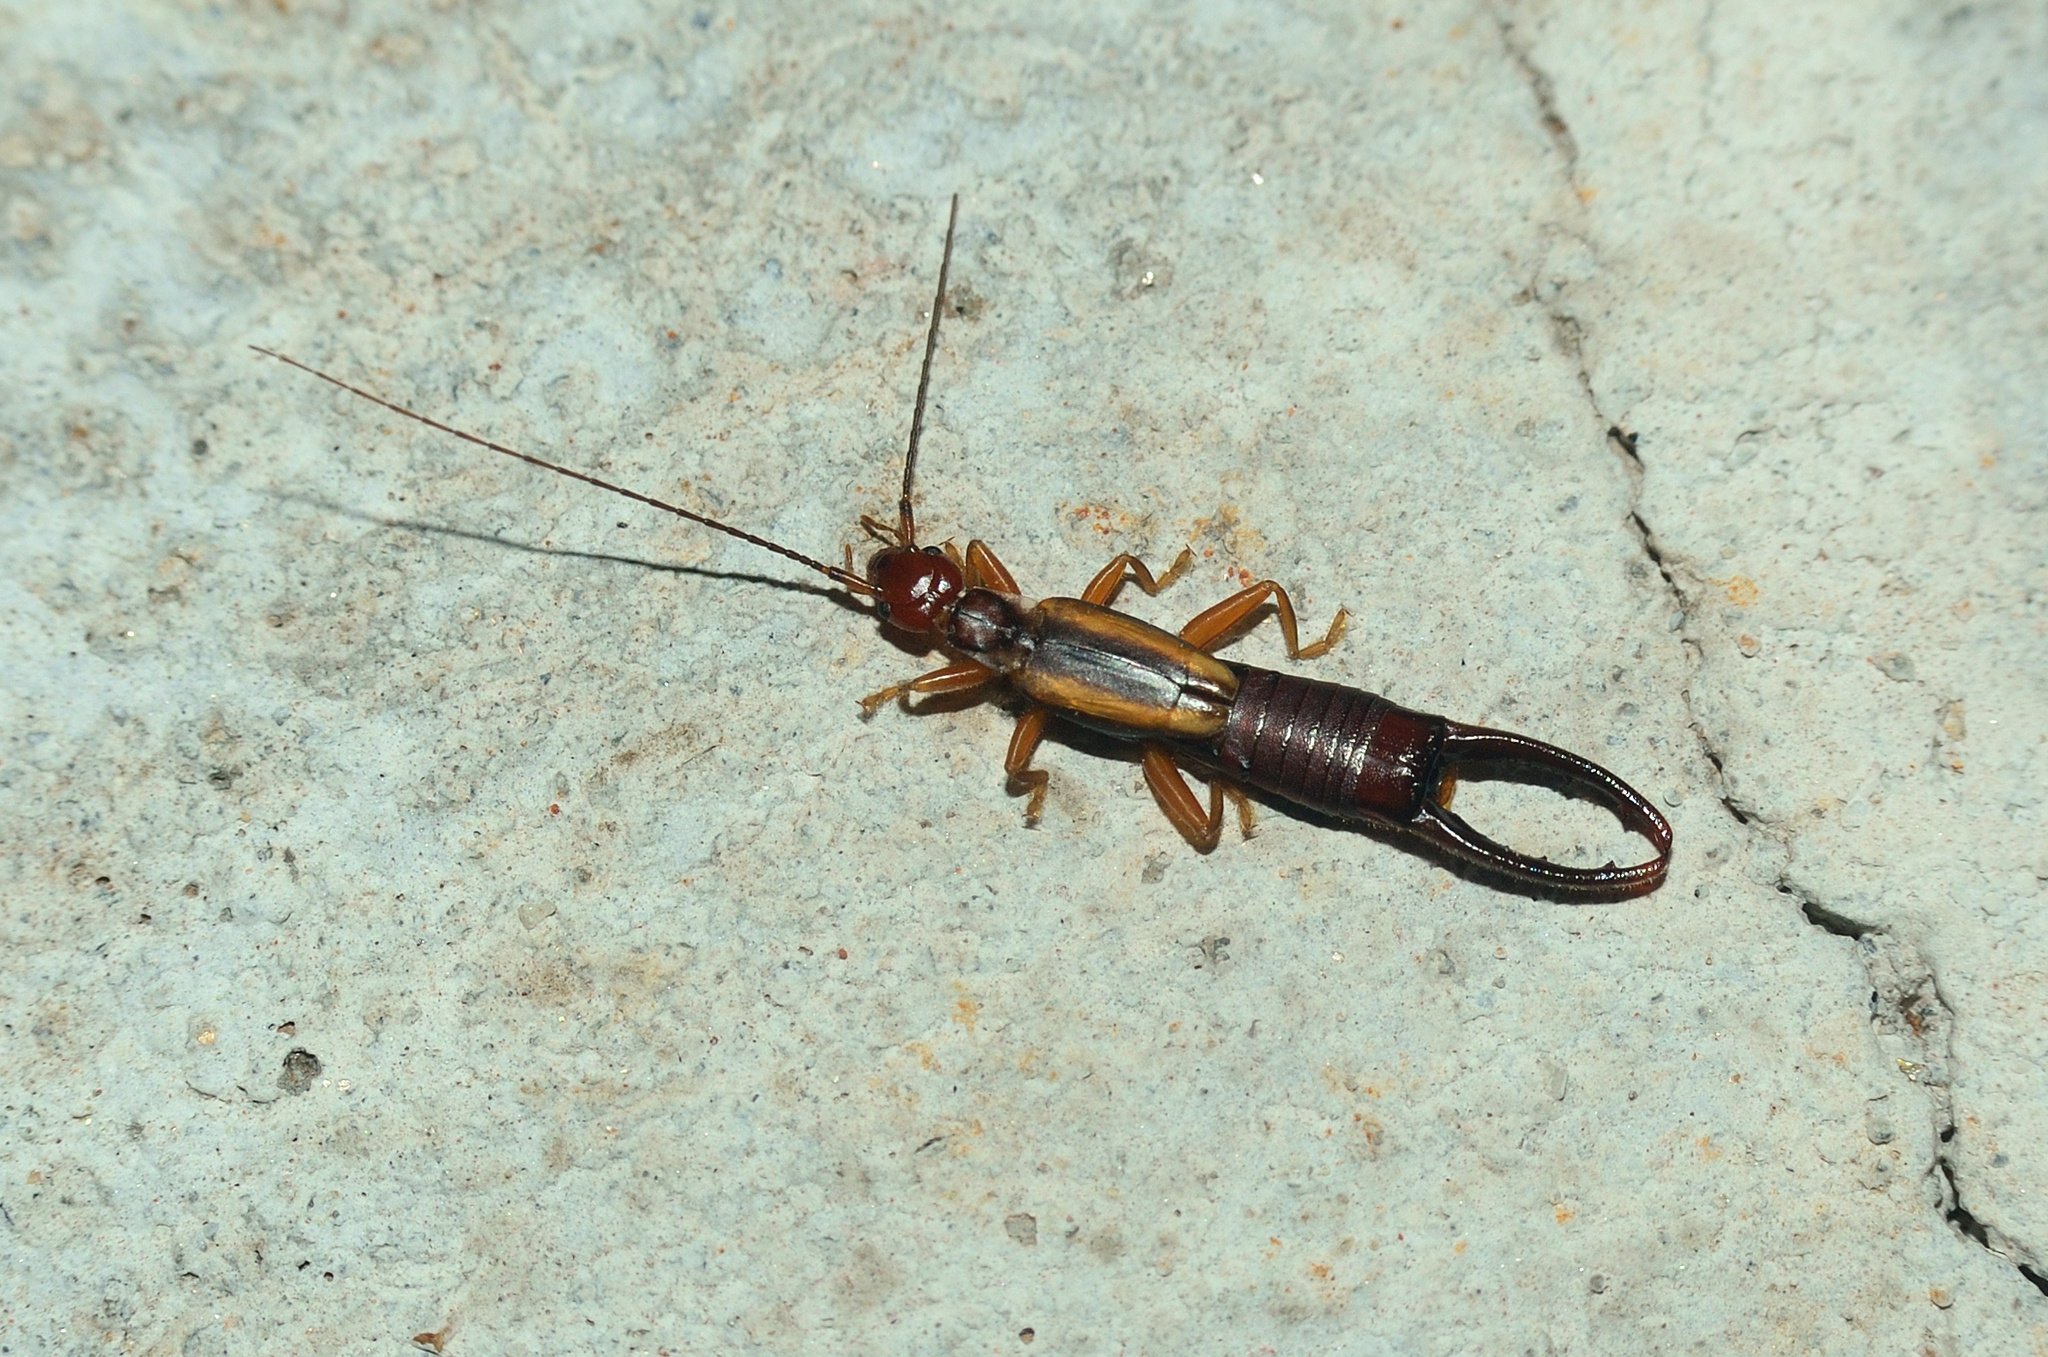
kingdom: Animalia
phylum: Arthropoda
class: Insecta
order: Dermaptera
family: Chelisochidae
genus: Proreus
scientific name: Proreus decipiens
